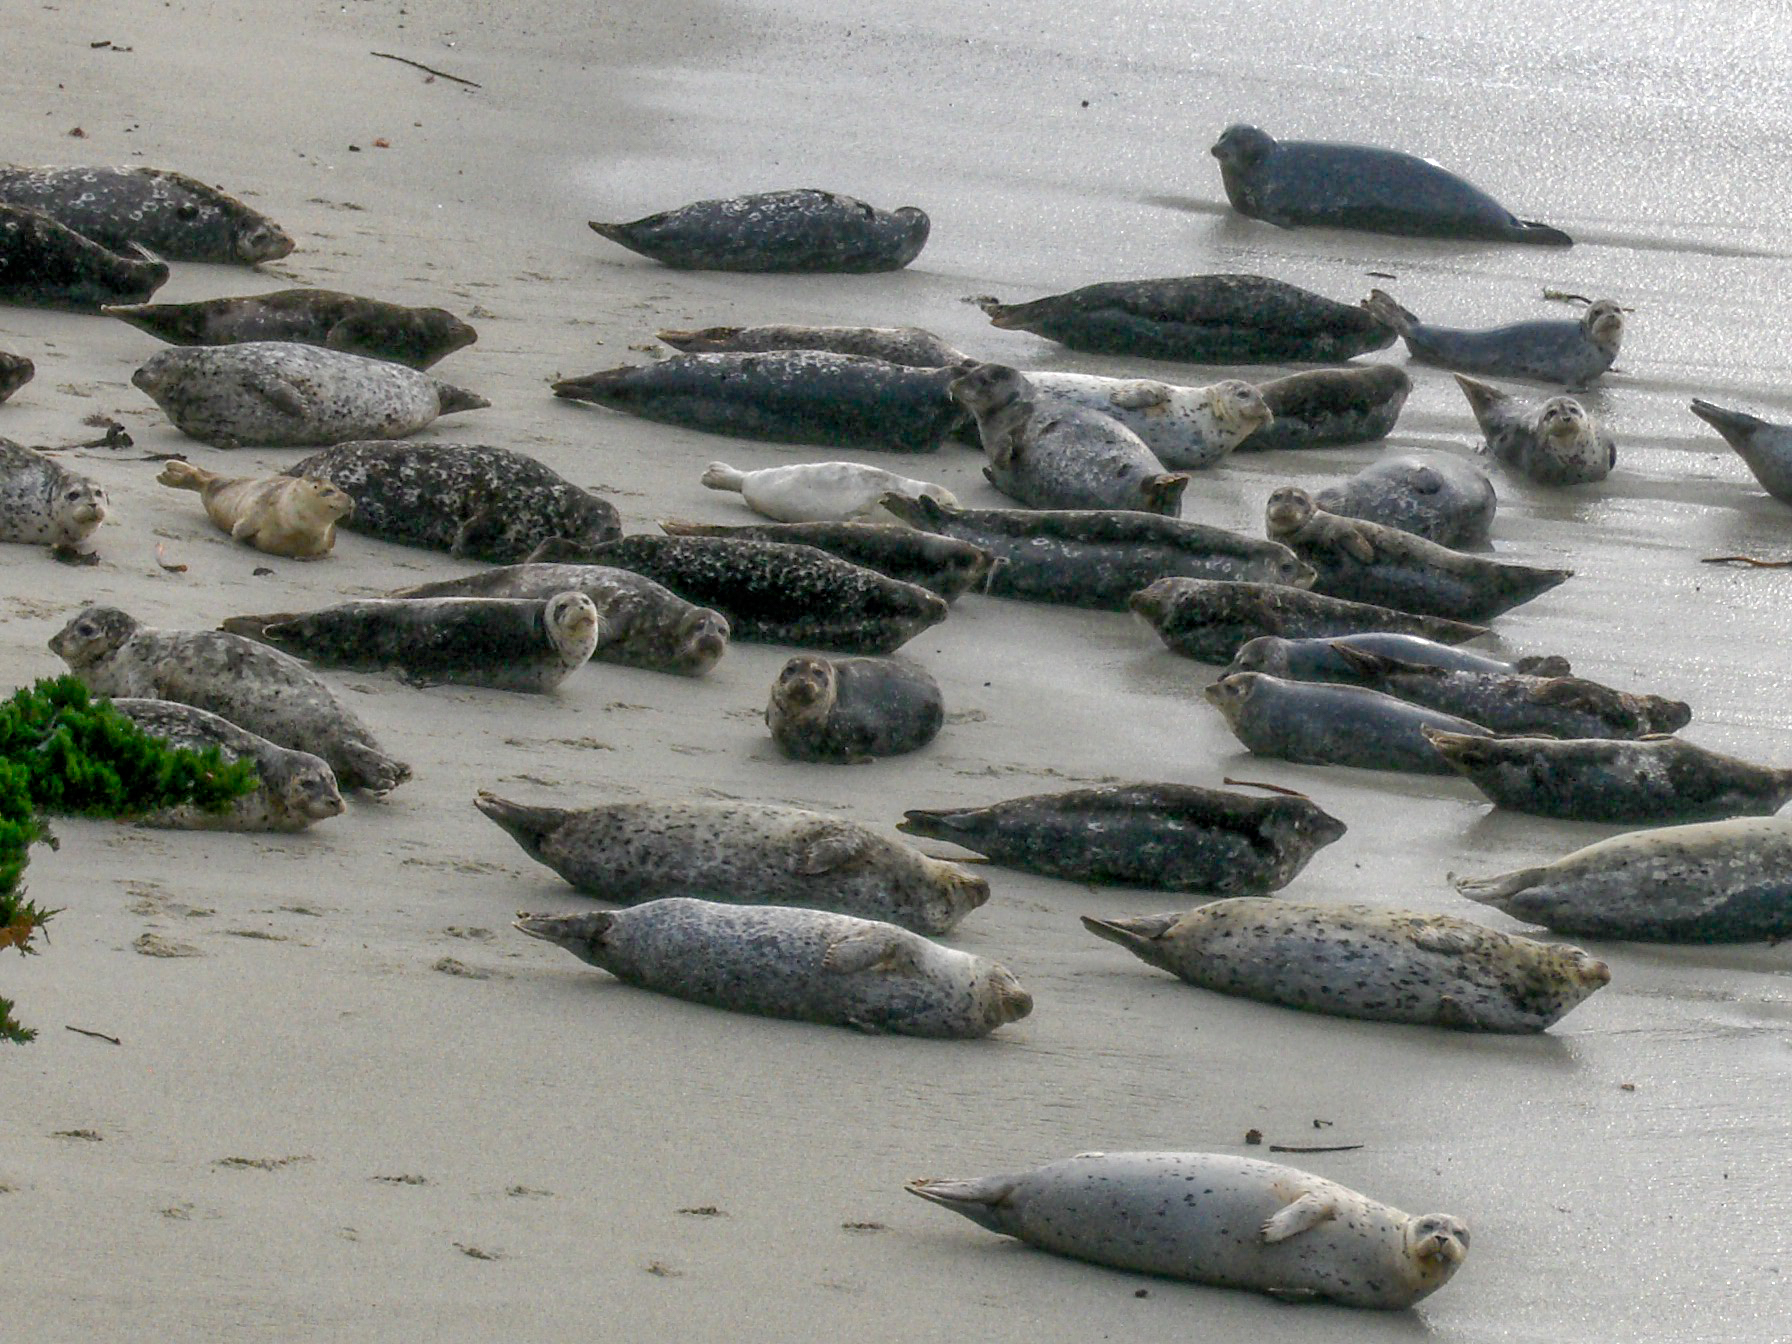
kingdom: Animalia
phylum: Chordata
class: Mammalia
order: Carnivora
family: Phocidae
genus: Phoca
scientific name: Phoca vitulina
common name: Harbor seal
